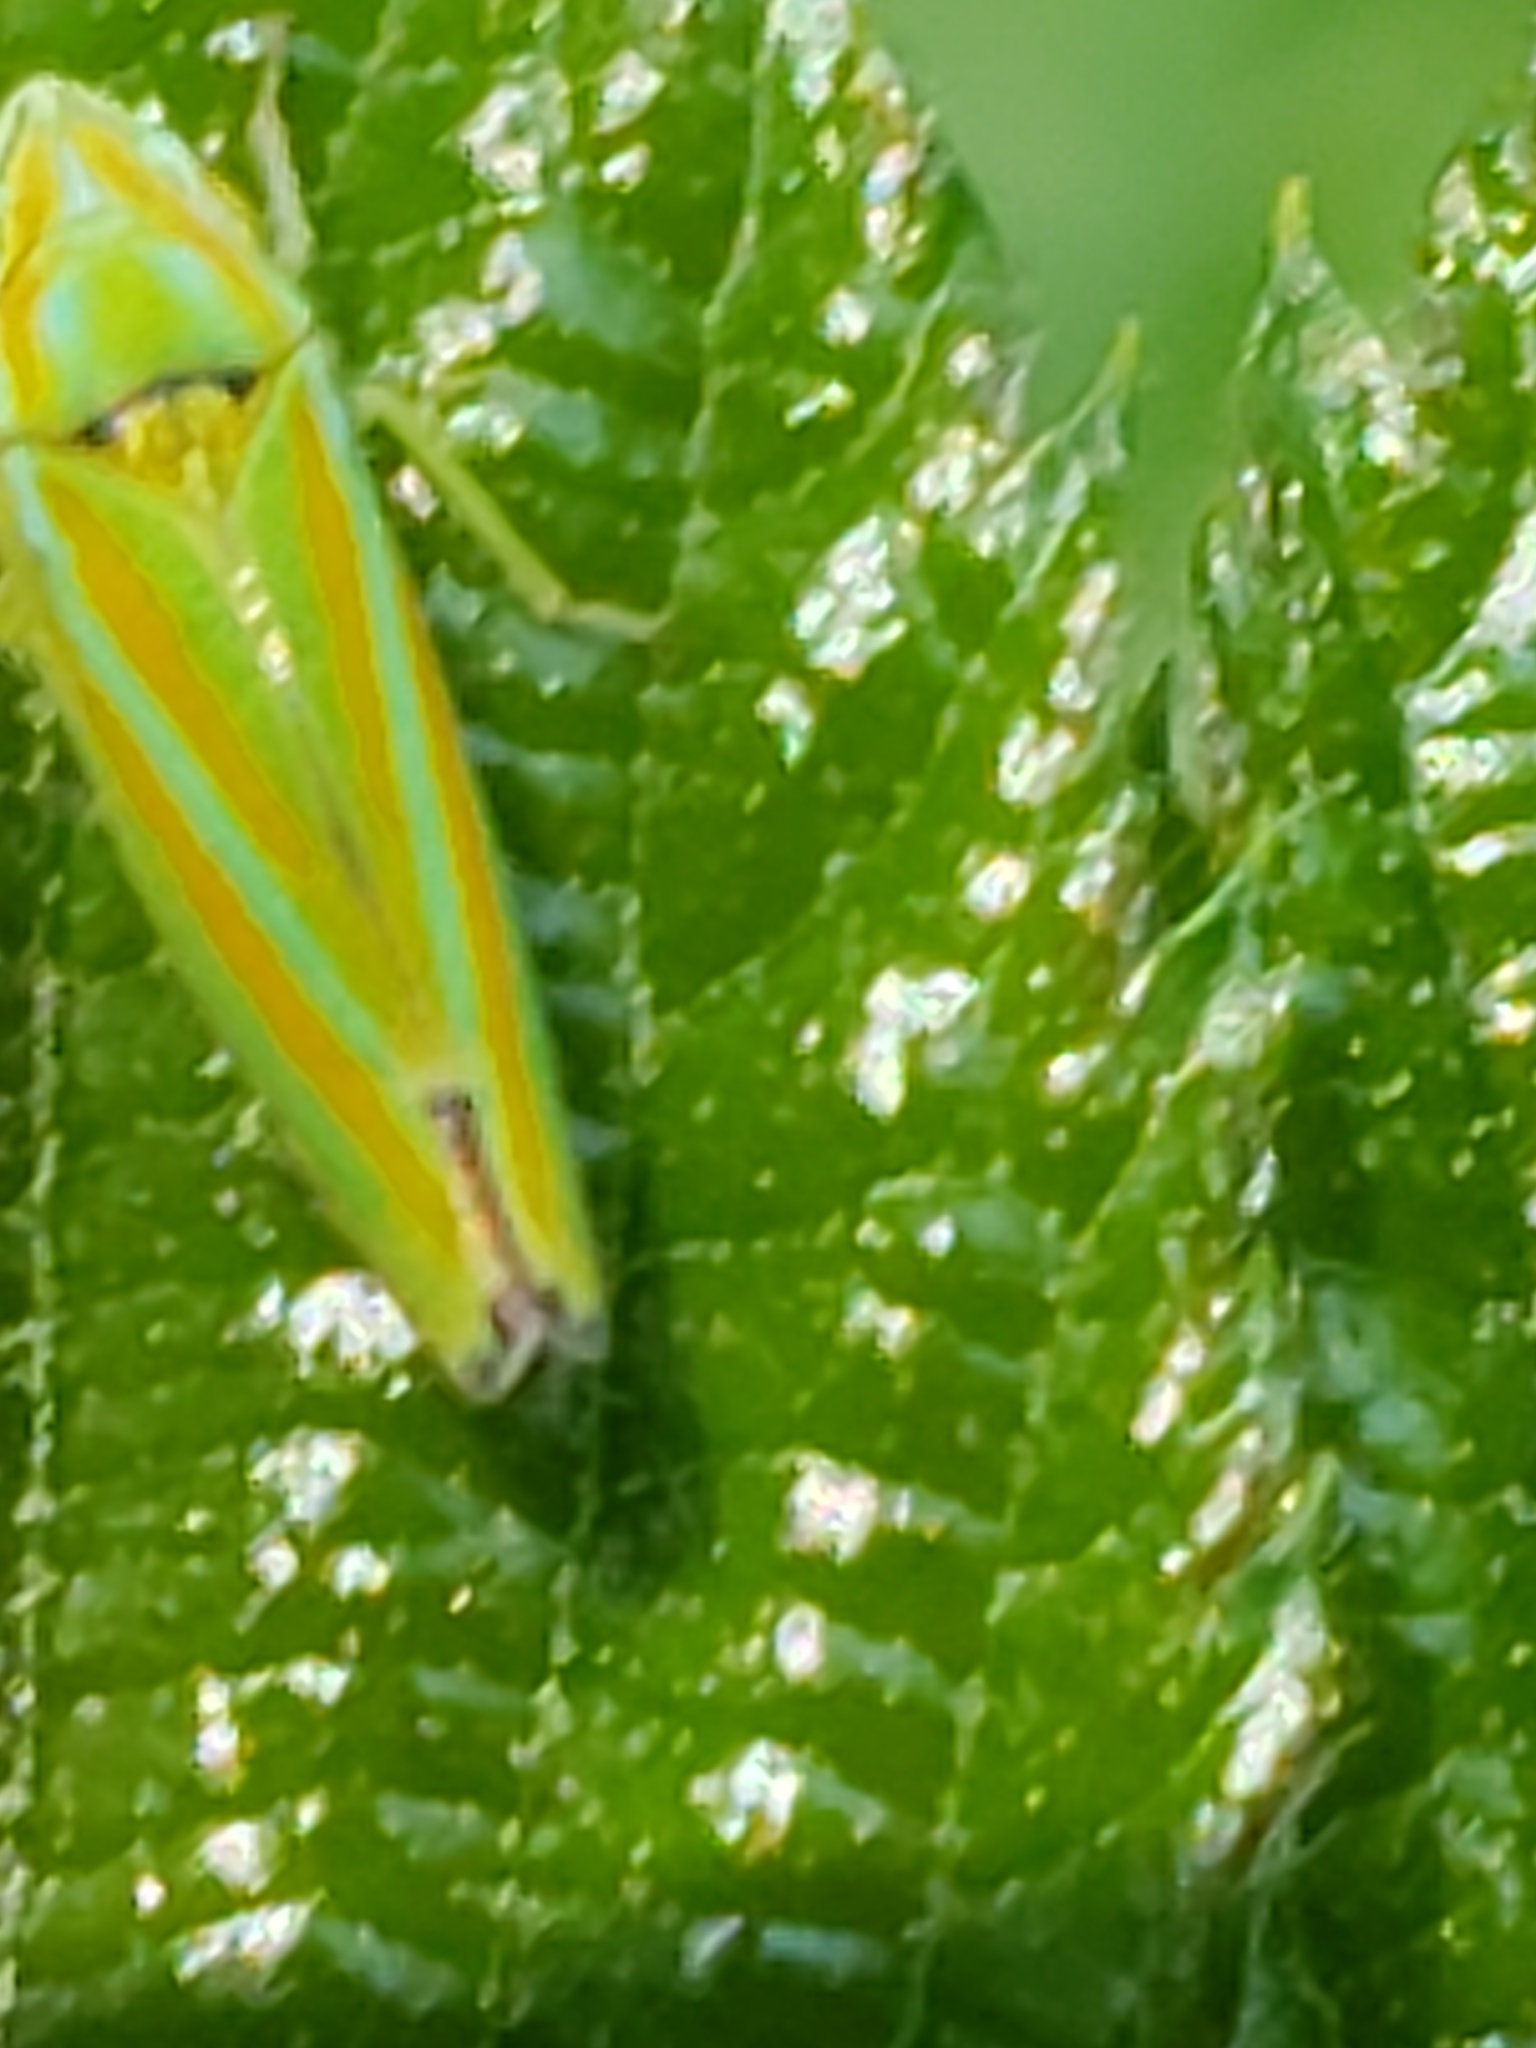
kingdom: Animalia
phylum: Arthropoda
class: Insecta
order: Hemiptera
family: Cicadellidae
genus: Graphocephala
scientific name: Graphocephala versuta
